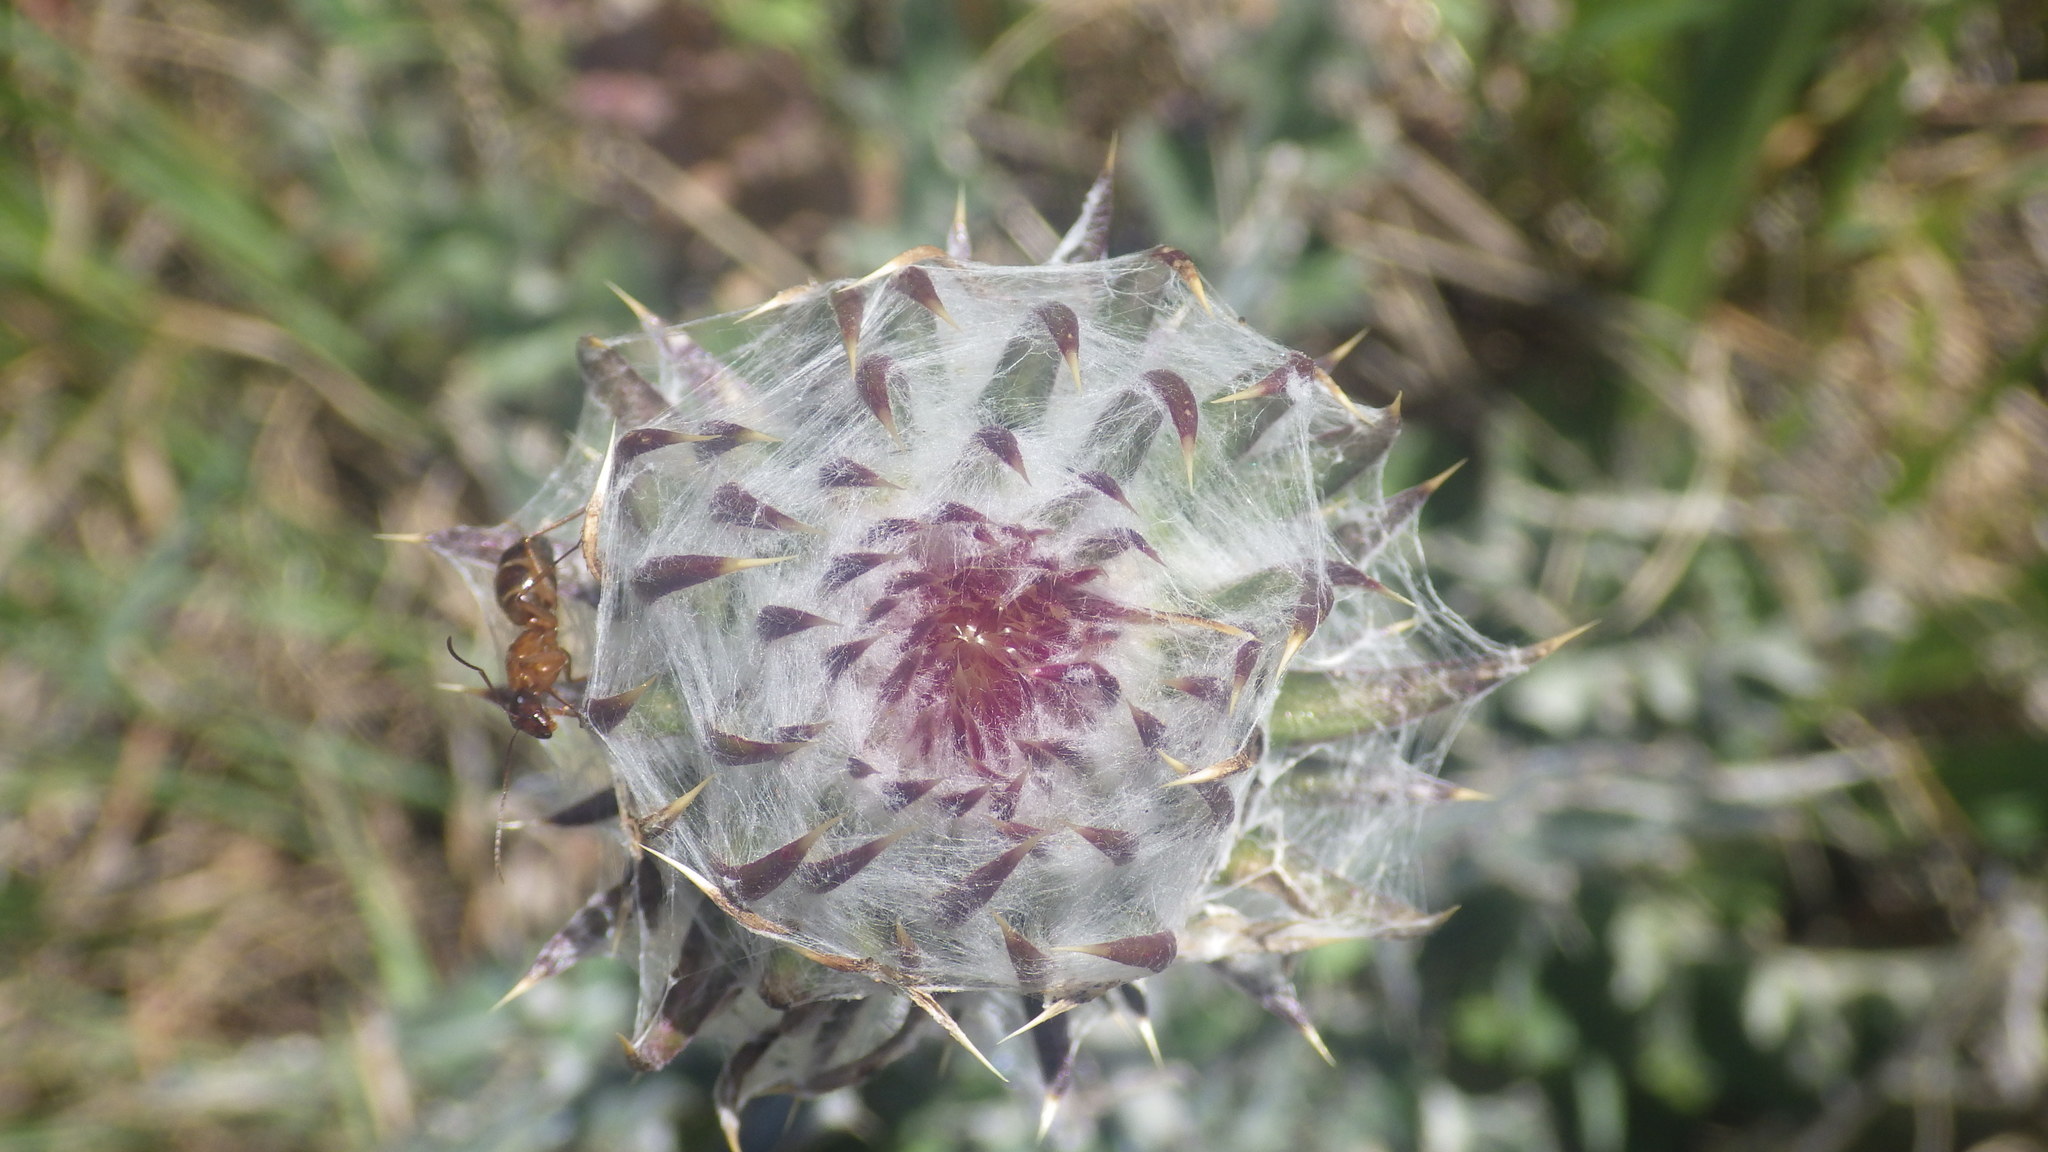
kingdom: Plantae
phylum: Tracheophyta
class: Magnoliopsida
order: Asterales
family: Asteraceae
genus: Cirsium
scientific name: Cirsium occidentale
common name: Western thistle
